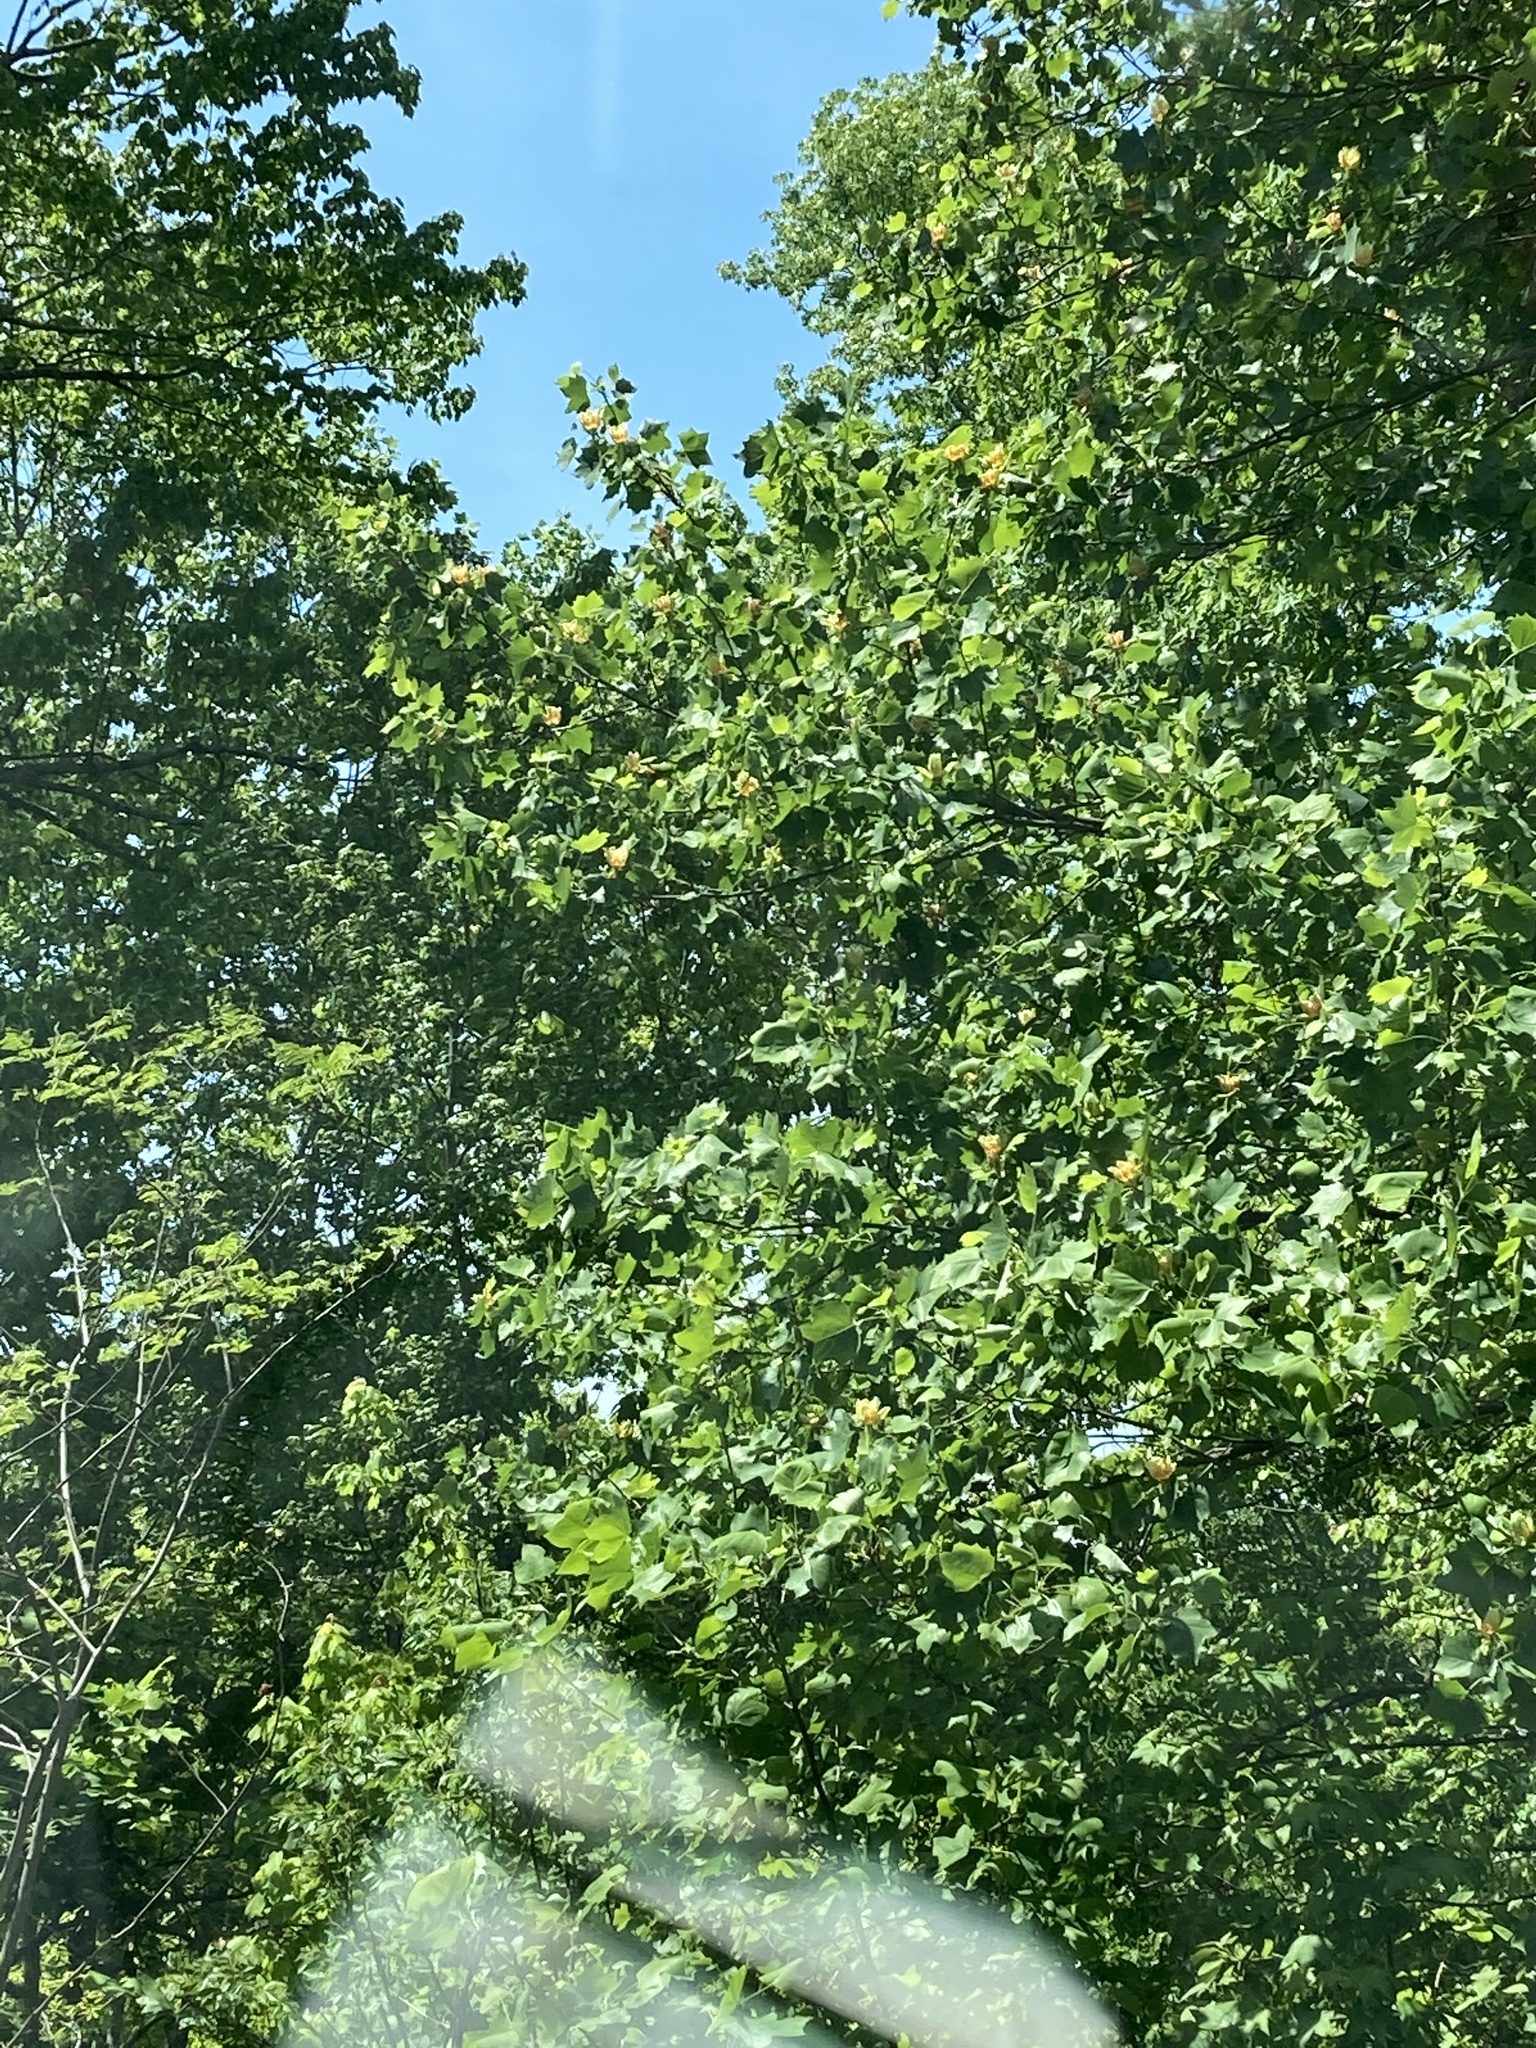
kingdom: Plantae
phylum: Tracheophyta
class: Magnoliopsida
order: Magnoliales
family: Magnoliaceae
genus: Liriodendron
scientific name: Liriodendron tulipifera
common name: Tulip tree
